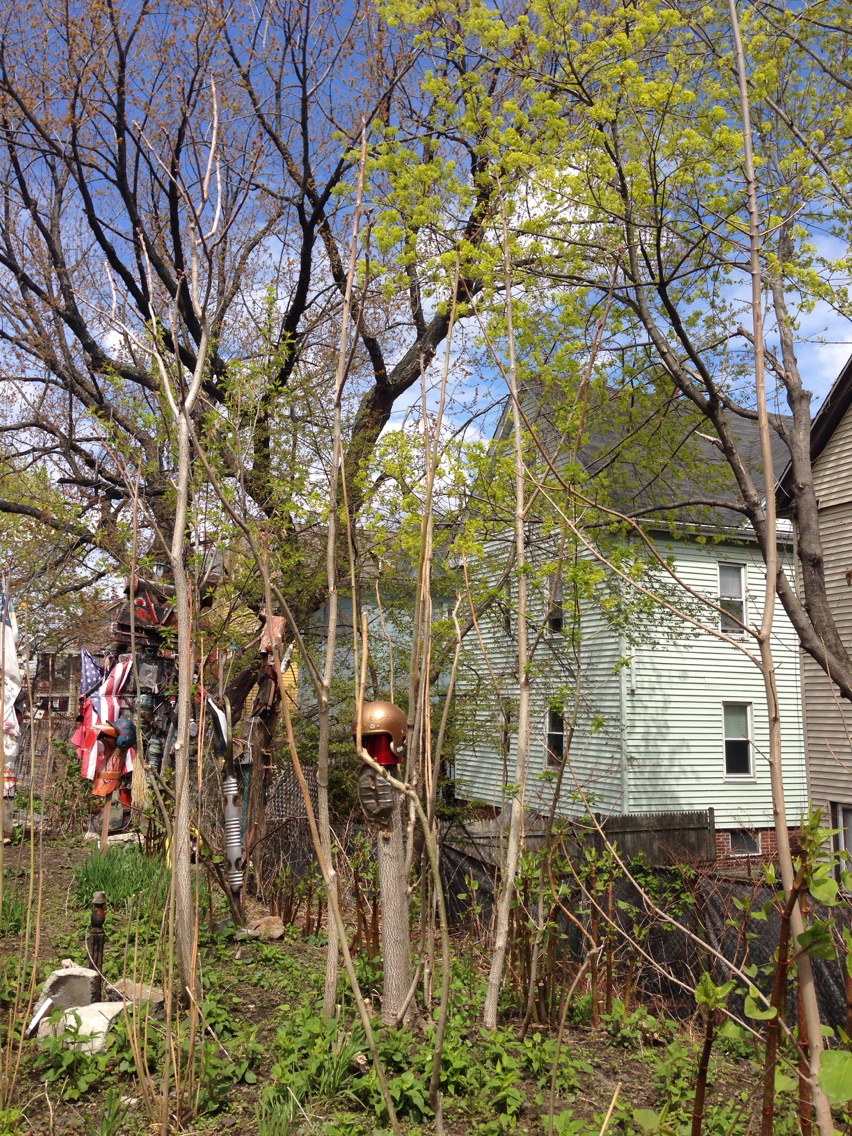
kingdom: Plantae
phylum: Tracheophyta
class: Magnoliopsida
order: Sapindales
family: Simaroubaceae
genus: Ailanthus
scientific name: Ailanthus altissima
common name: Tree-of-heaven
